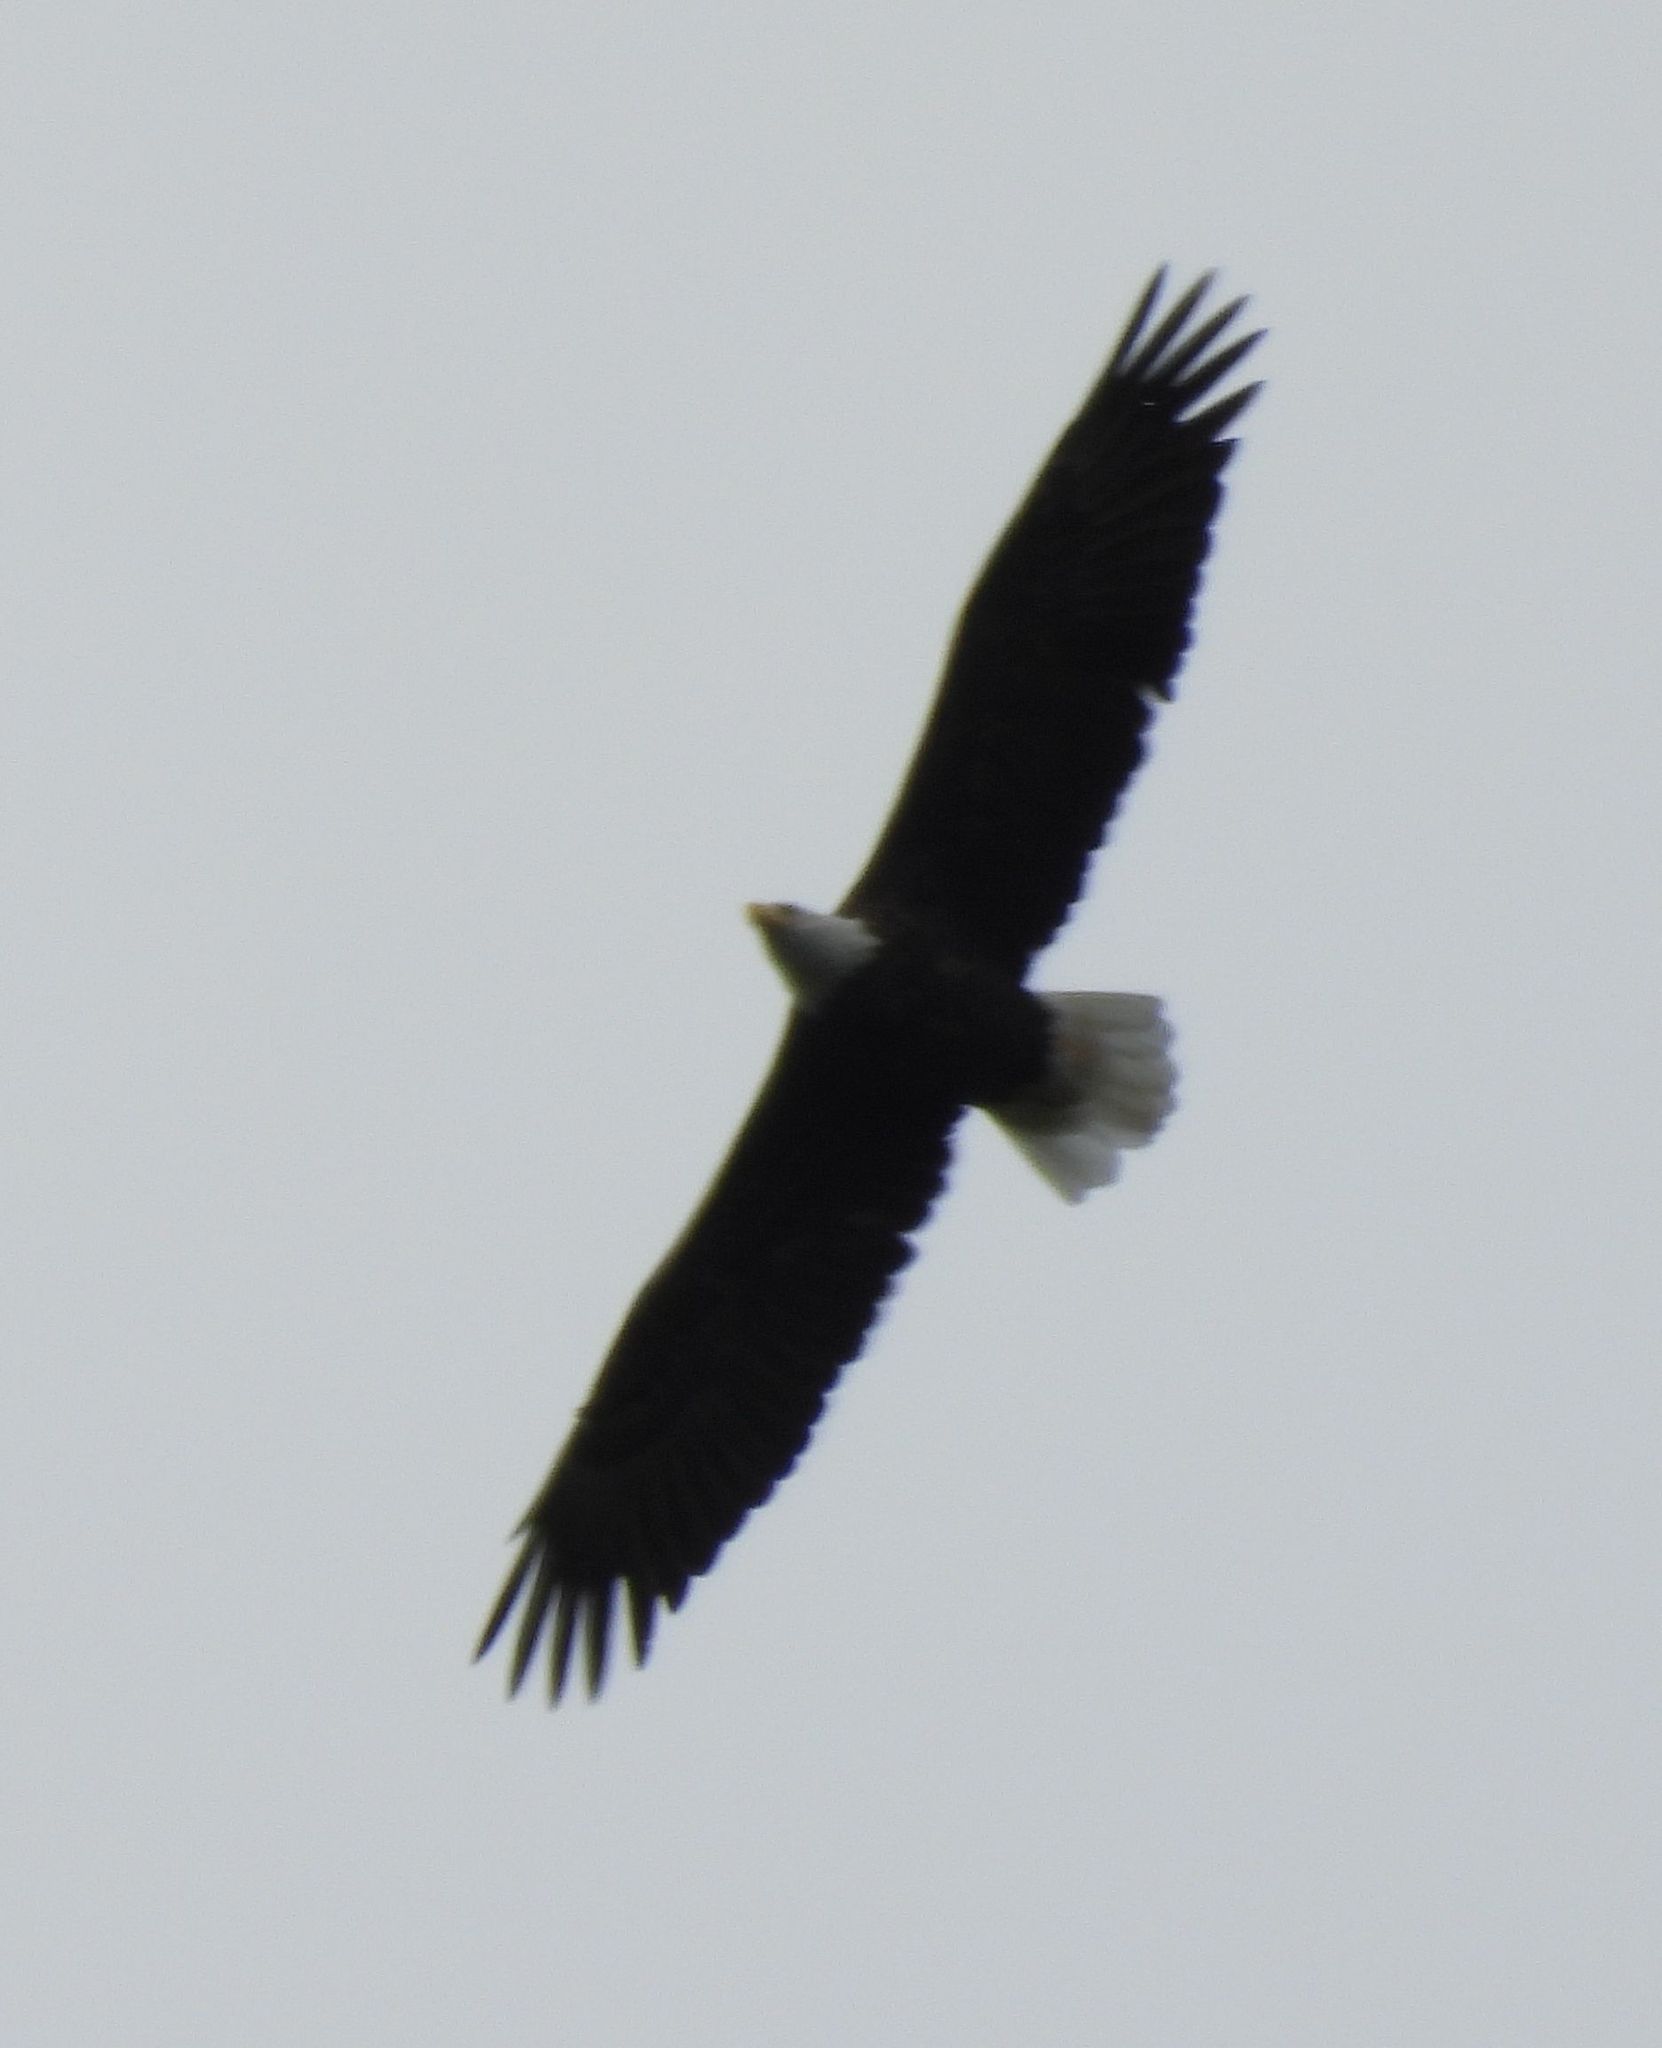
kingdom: Animalia
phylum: Chordata
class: Aves
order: Accipitriformes
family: Accipitridae
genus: Haliaeetus
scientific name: Haliaeetus leucocephalus
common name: Bald eagle
